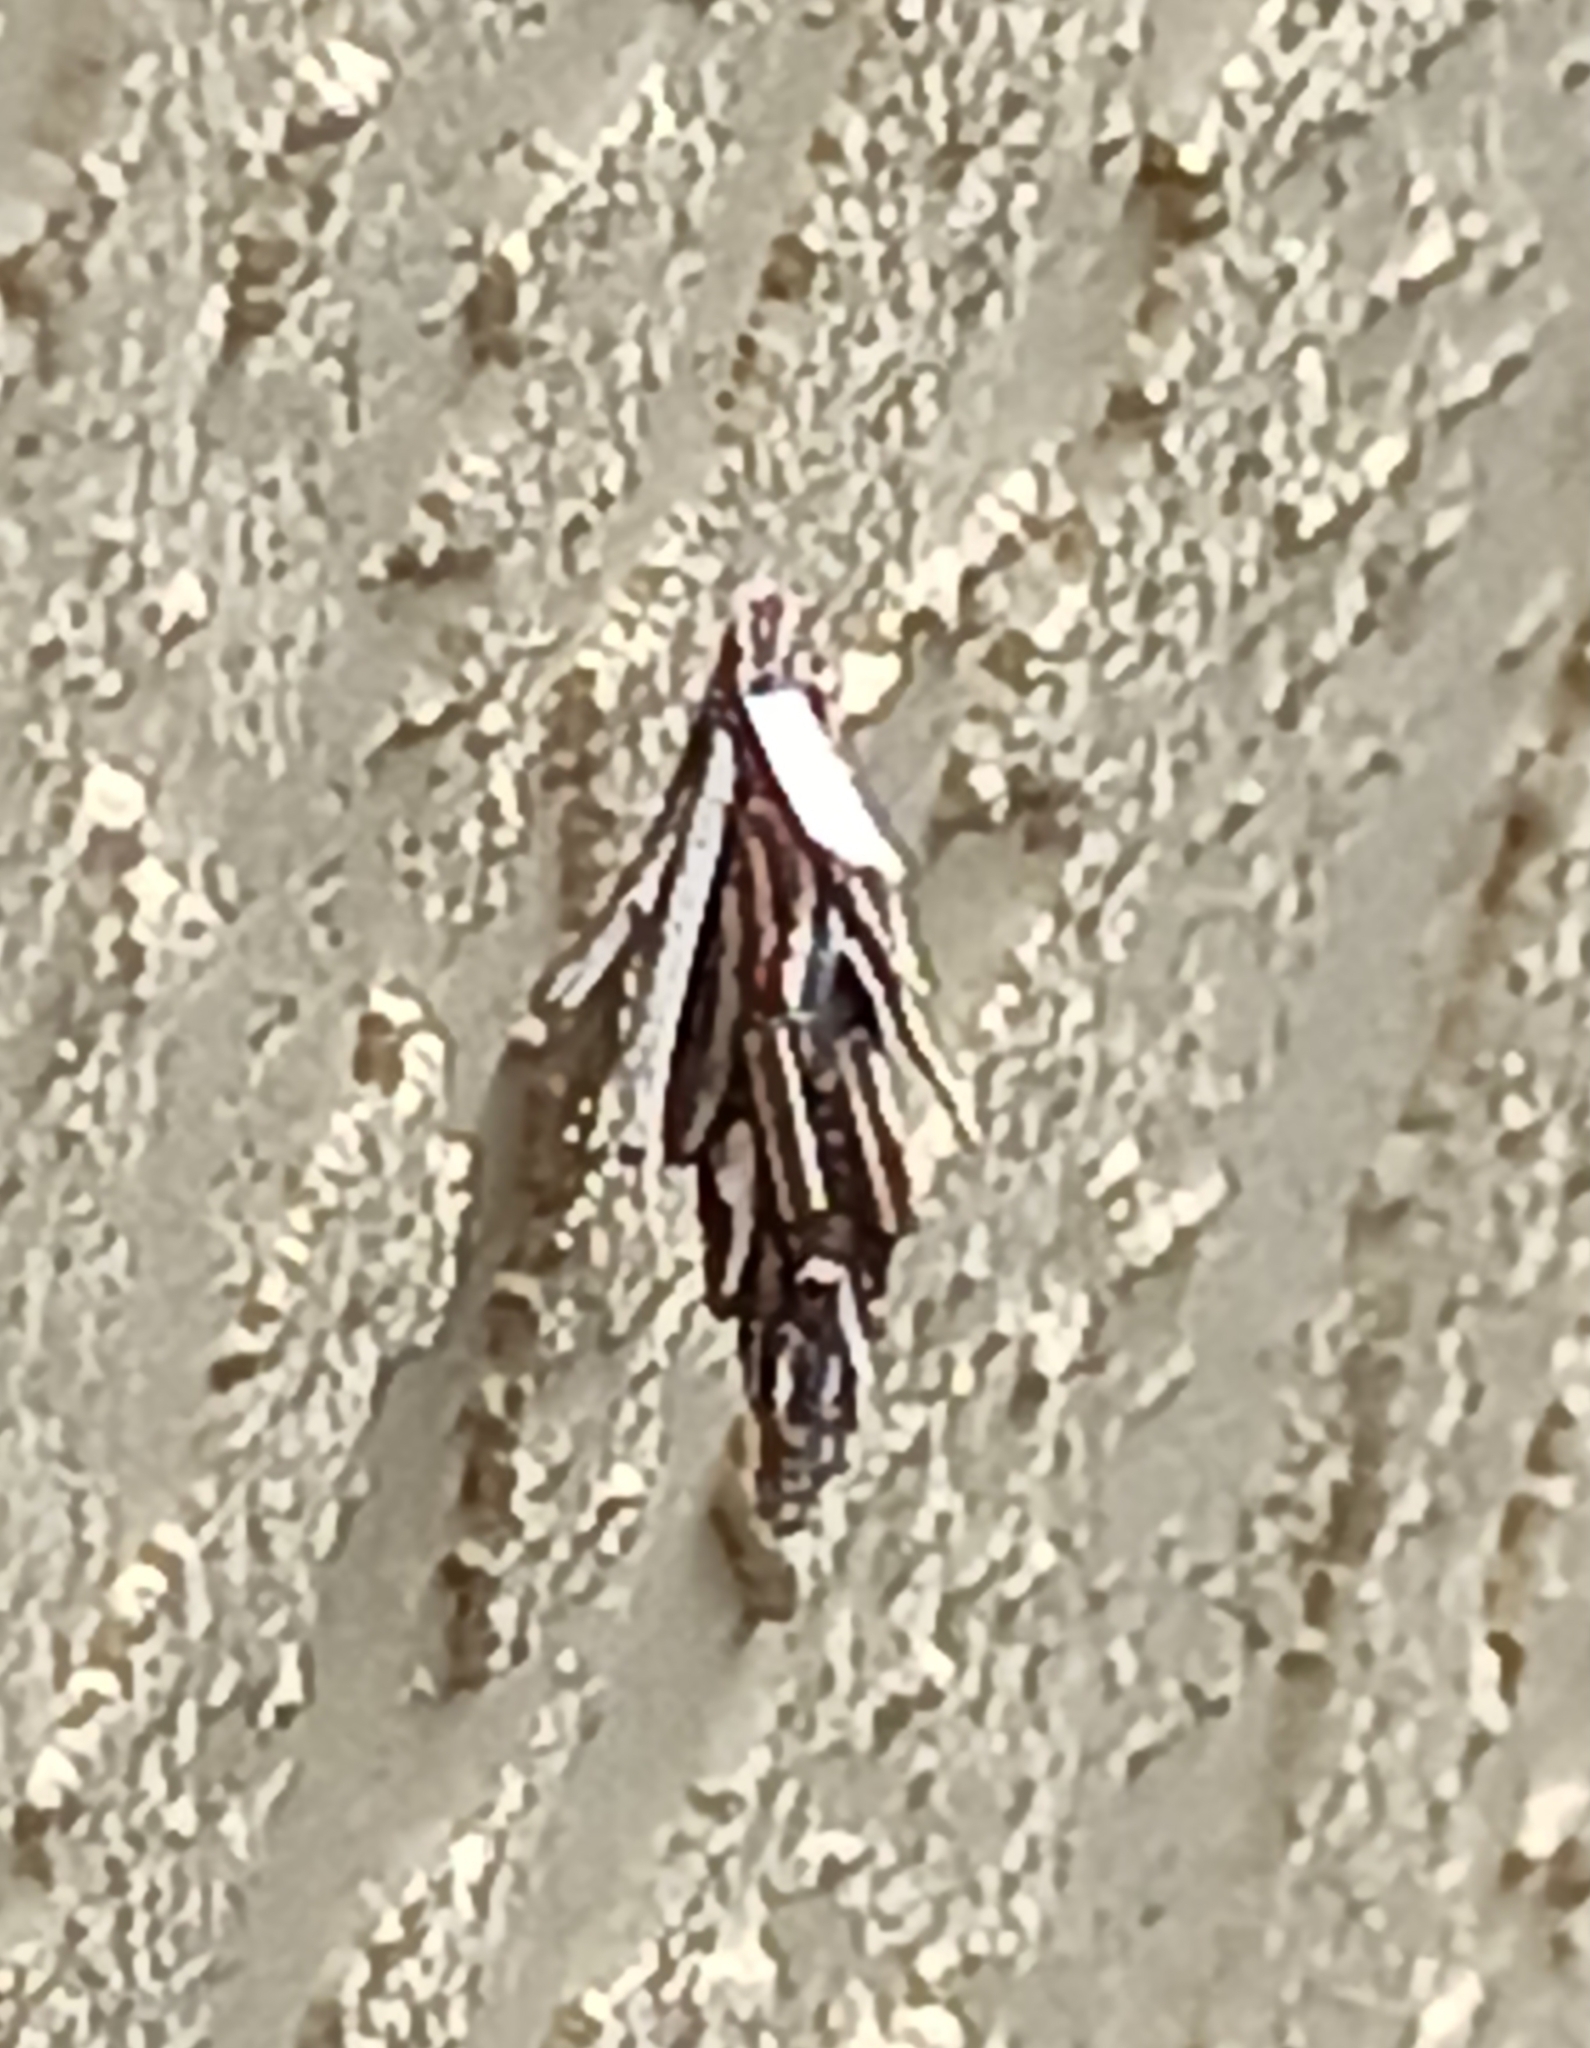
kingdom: Animalia
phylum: Arthropoda
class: Insecta
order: Lepidoptera
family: Psychidae
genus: Psyche
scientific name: Psyche casta
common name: Common sweep
